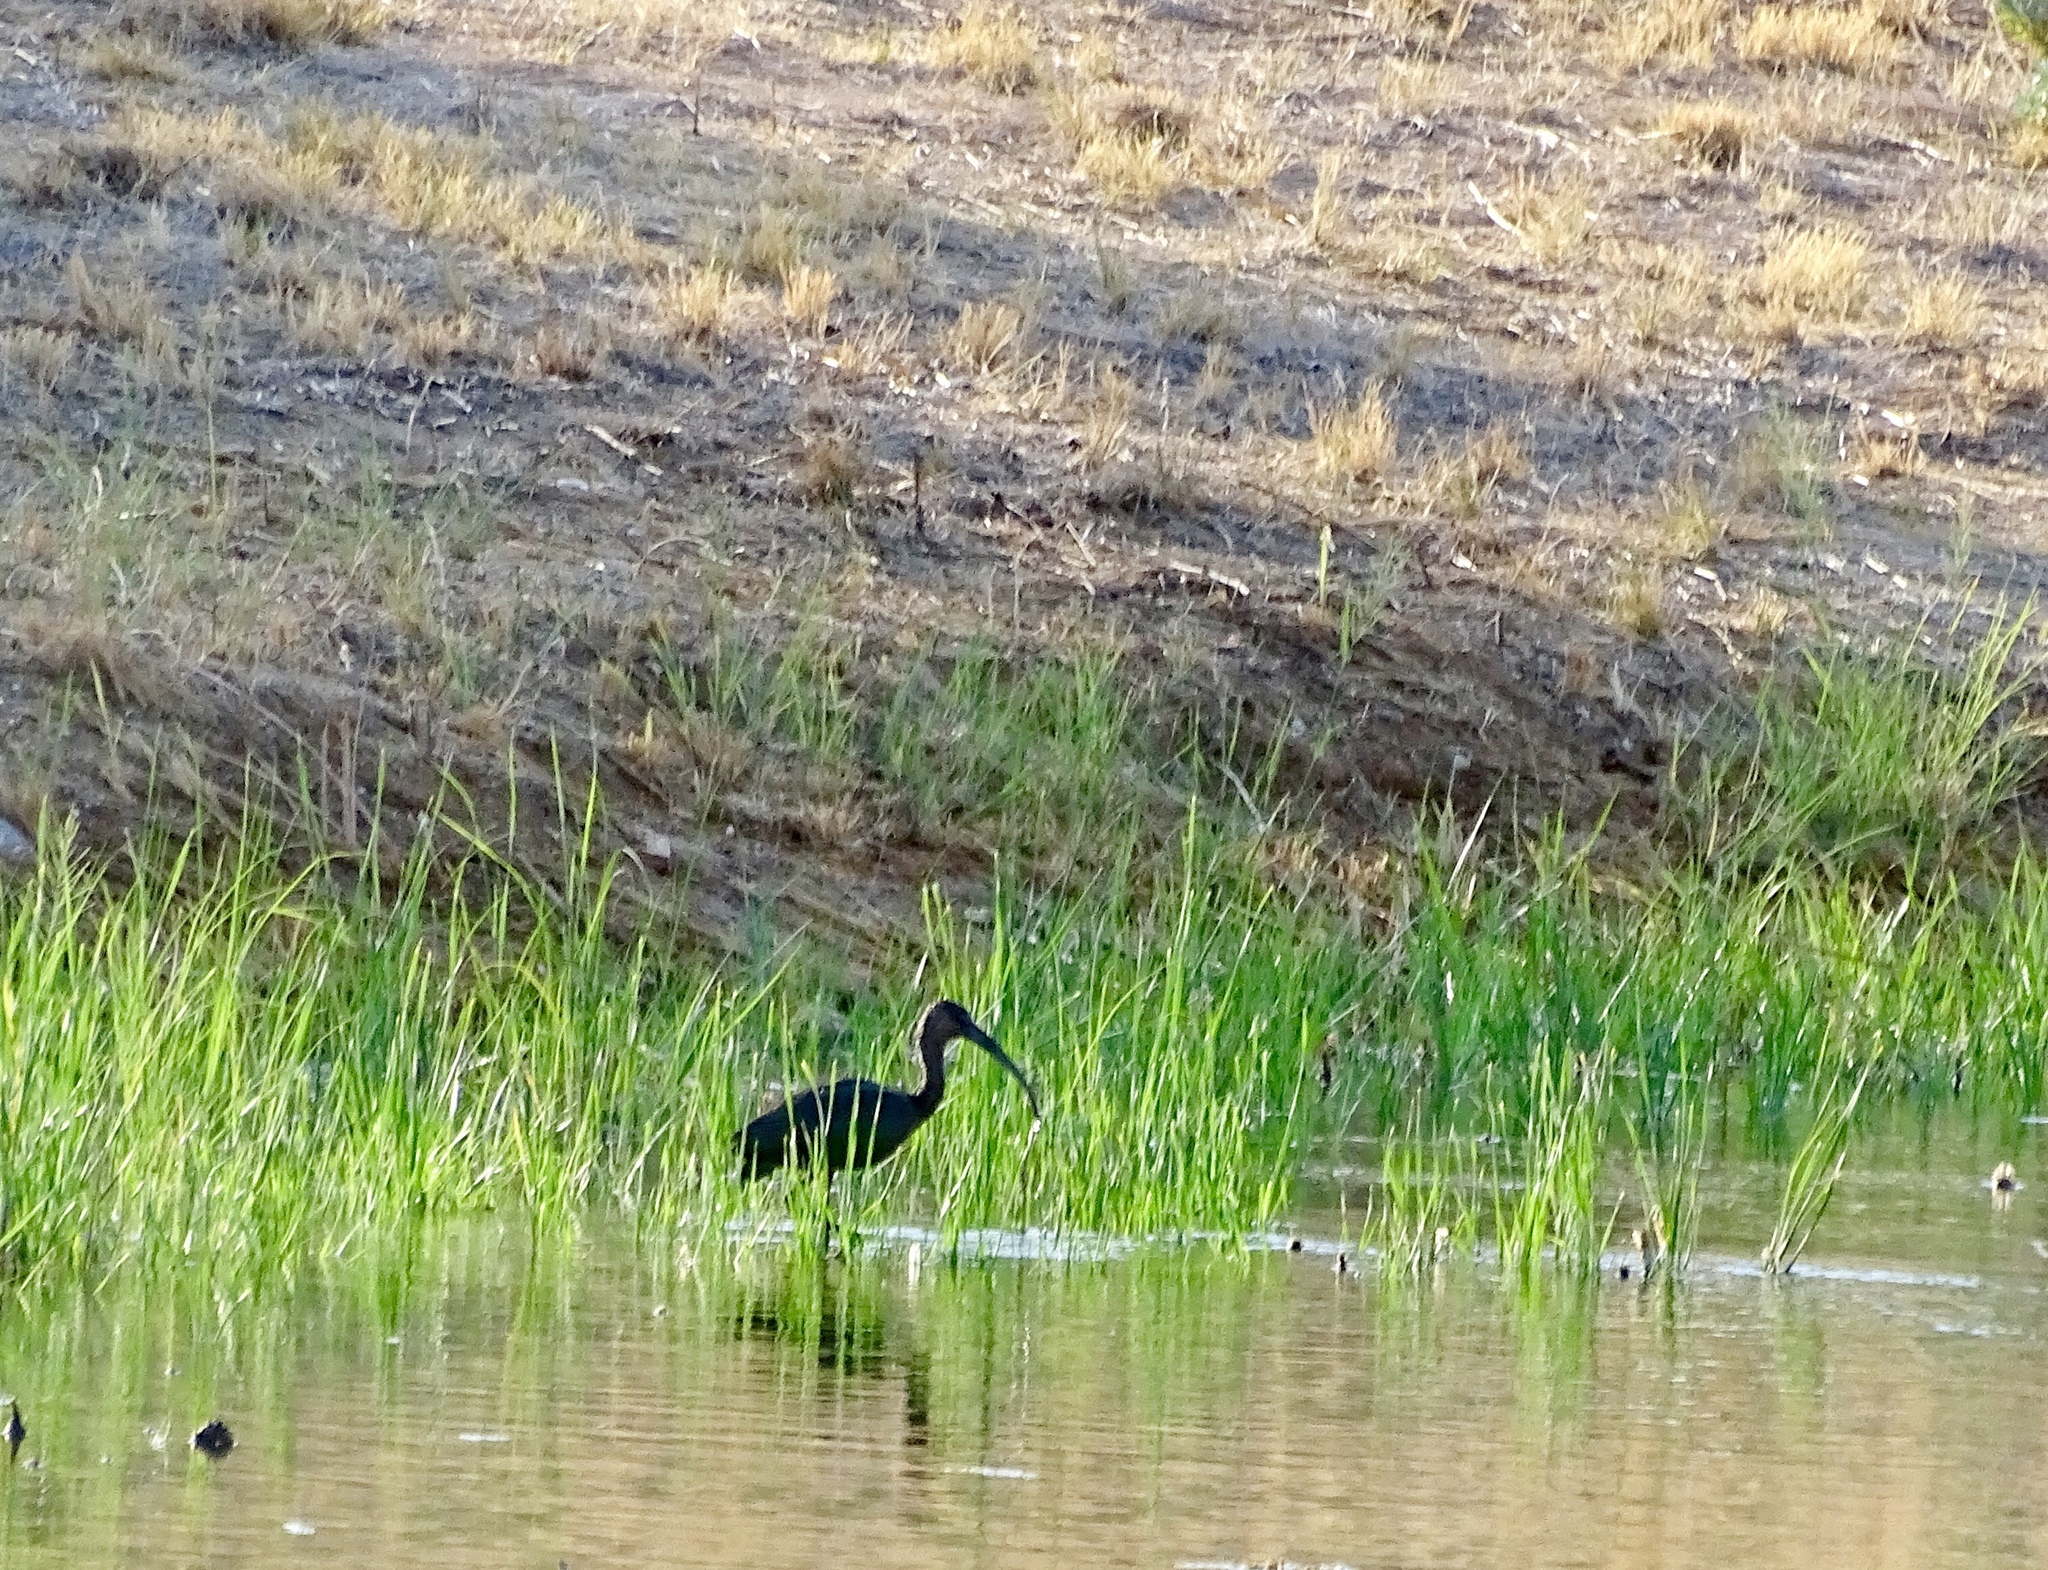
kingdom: Animalia
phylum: Chordata
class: Aves
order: Pelecaniformes
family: Threskiornithidae
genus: Plegadis
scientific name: Plegadis chihi
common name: White-faced ibis
